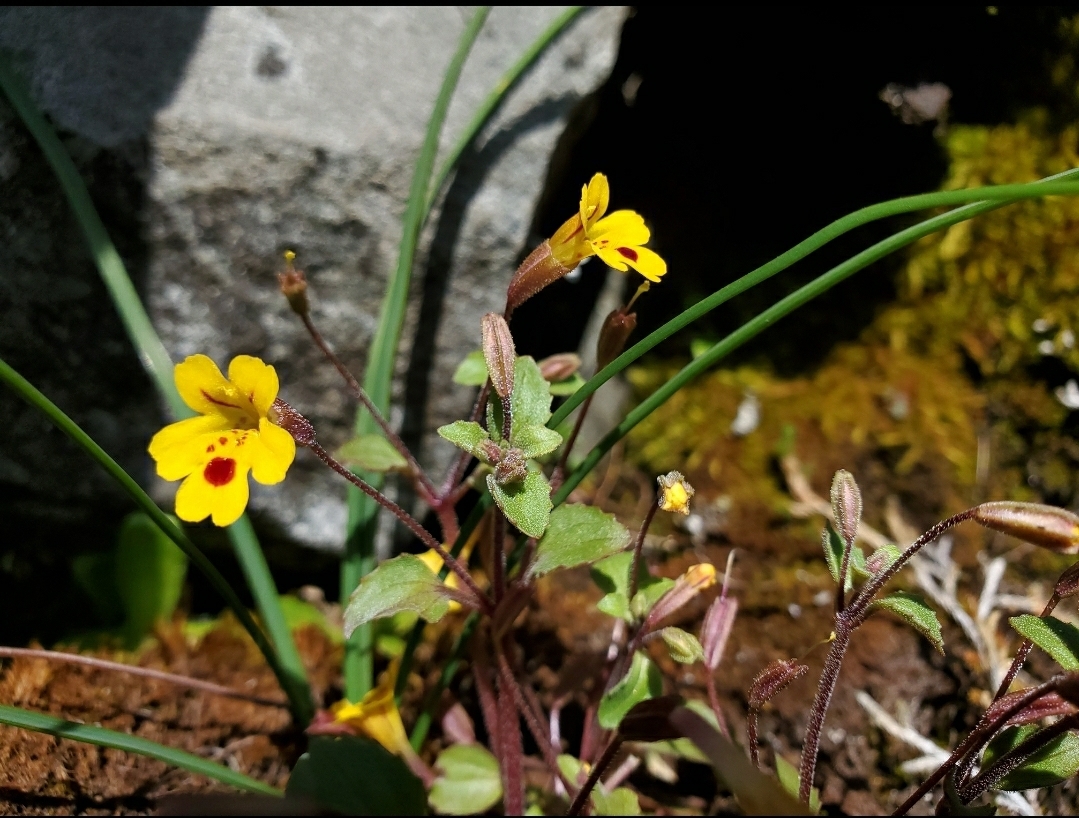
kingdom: Plantae
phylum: Tracheophyta
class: Magnoliopsida
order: Lamiales
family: Phrymaceae
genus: Erythranthe
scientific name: Erythranthe alsinoides
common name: Chickweed monkeyflower
